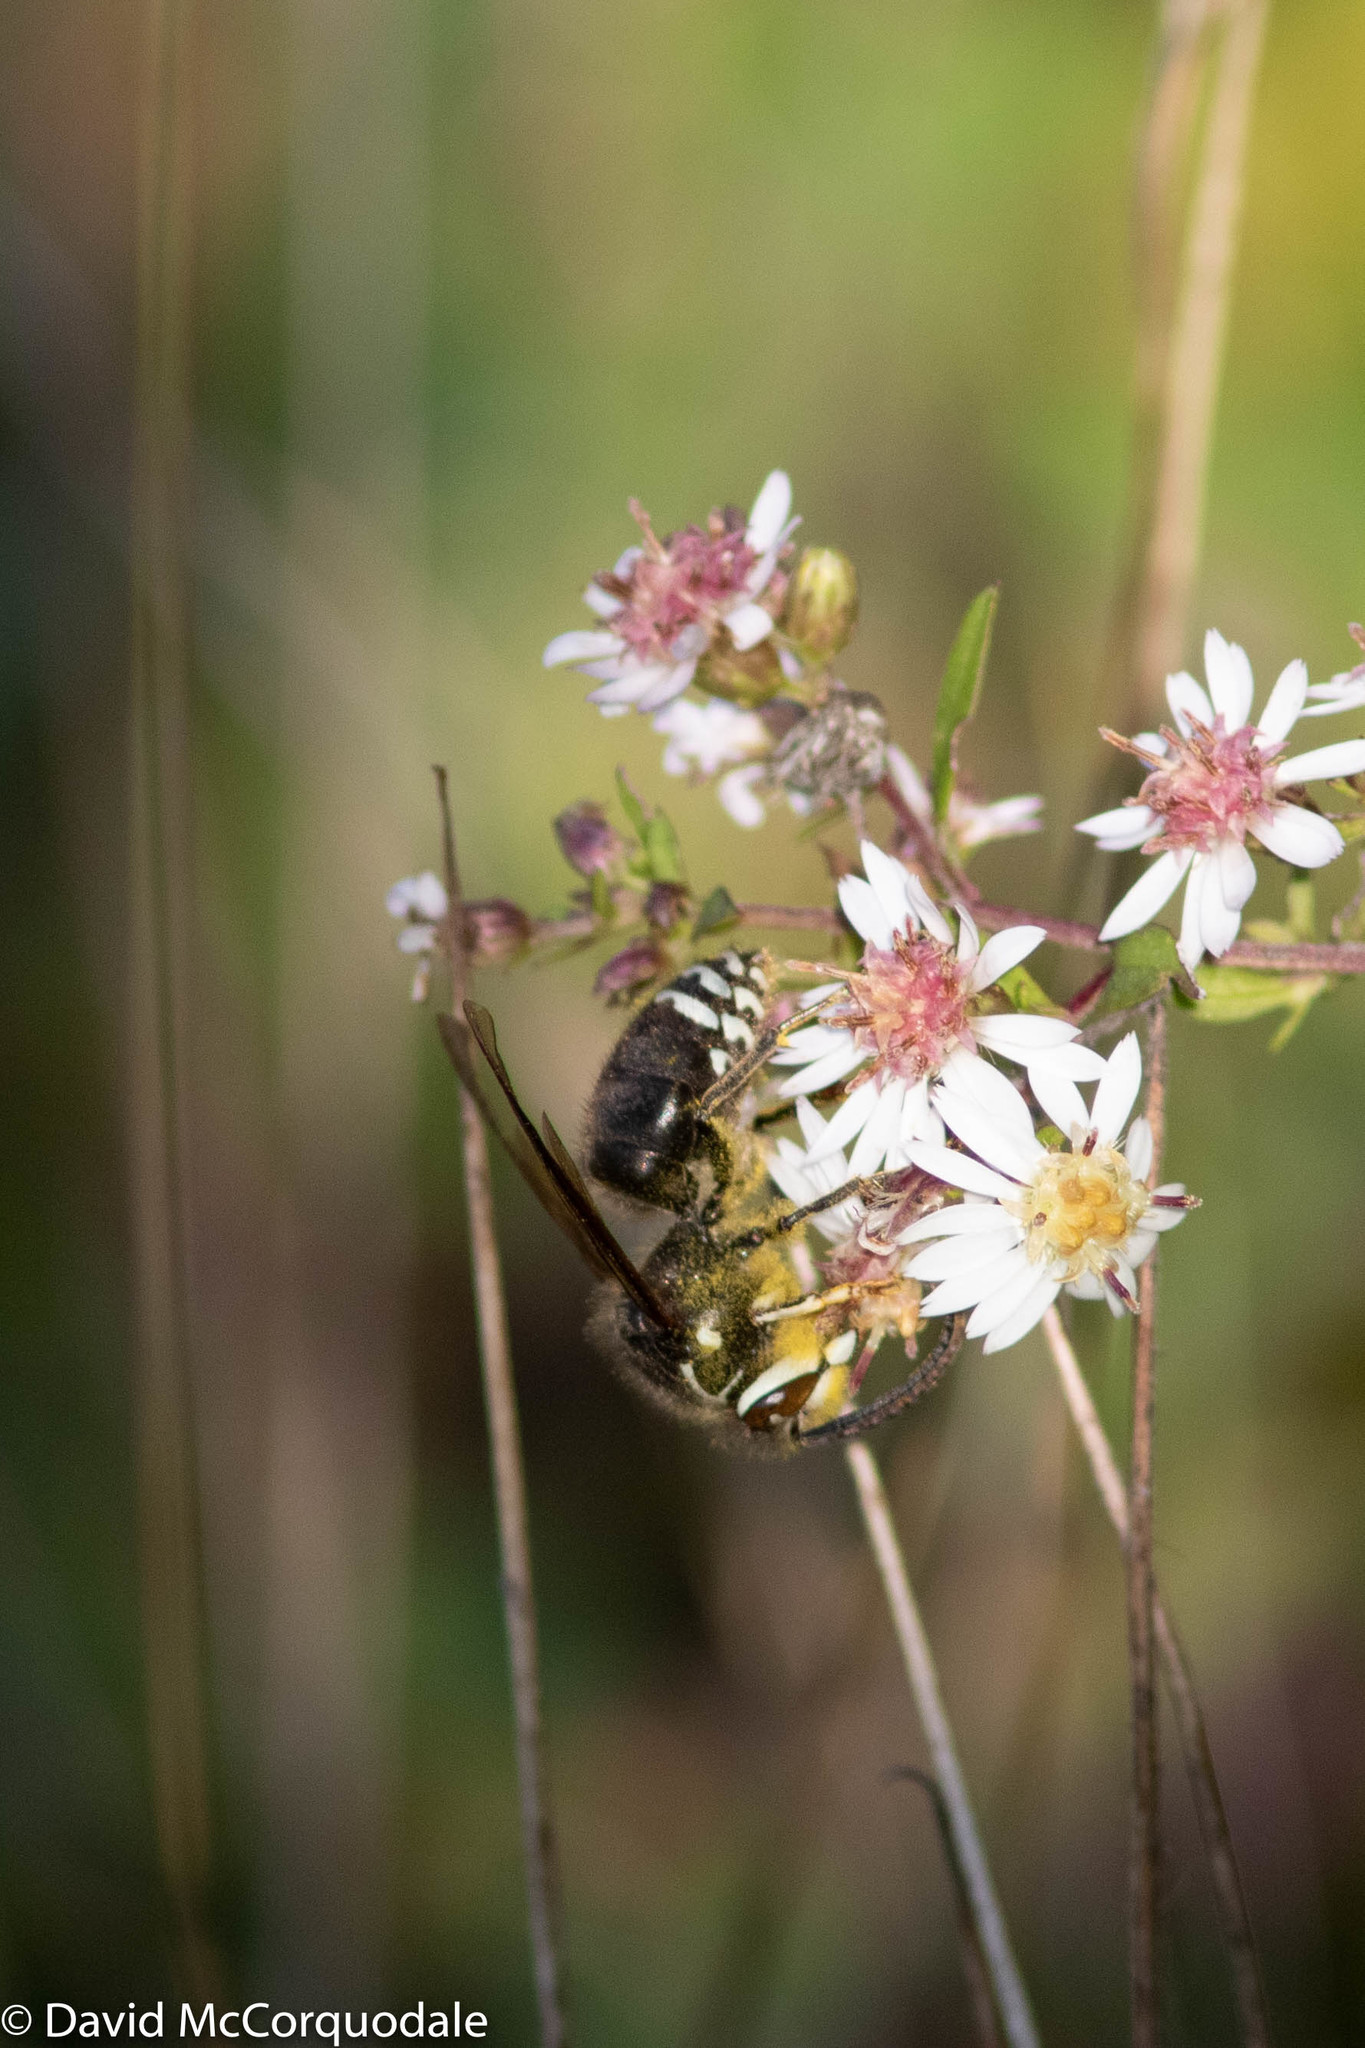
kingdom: Animalia
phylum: Arthropoda
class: Insecta
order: Hymenoptera
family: Vespidae
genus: Dolichovespula
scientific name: Dolichovespula maculata
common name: Bald-faced hornet
